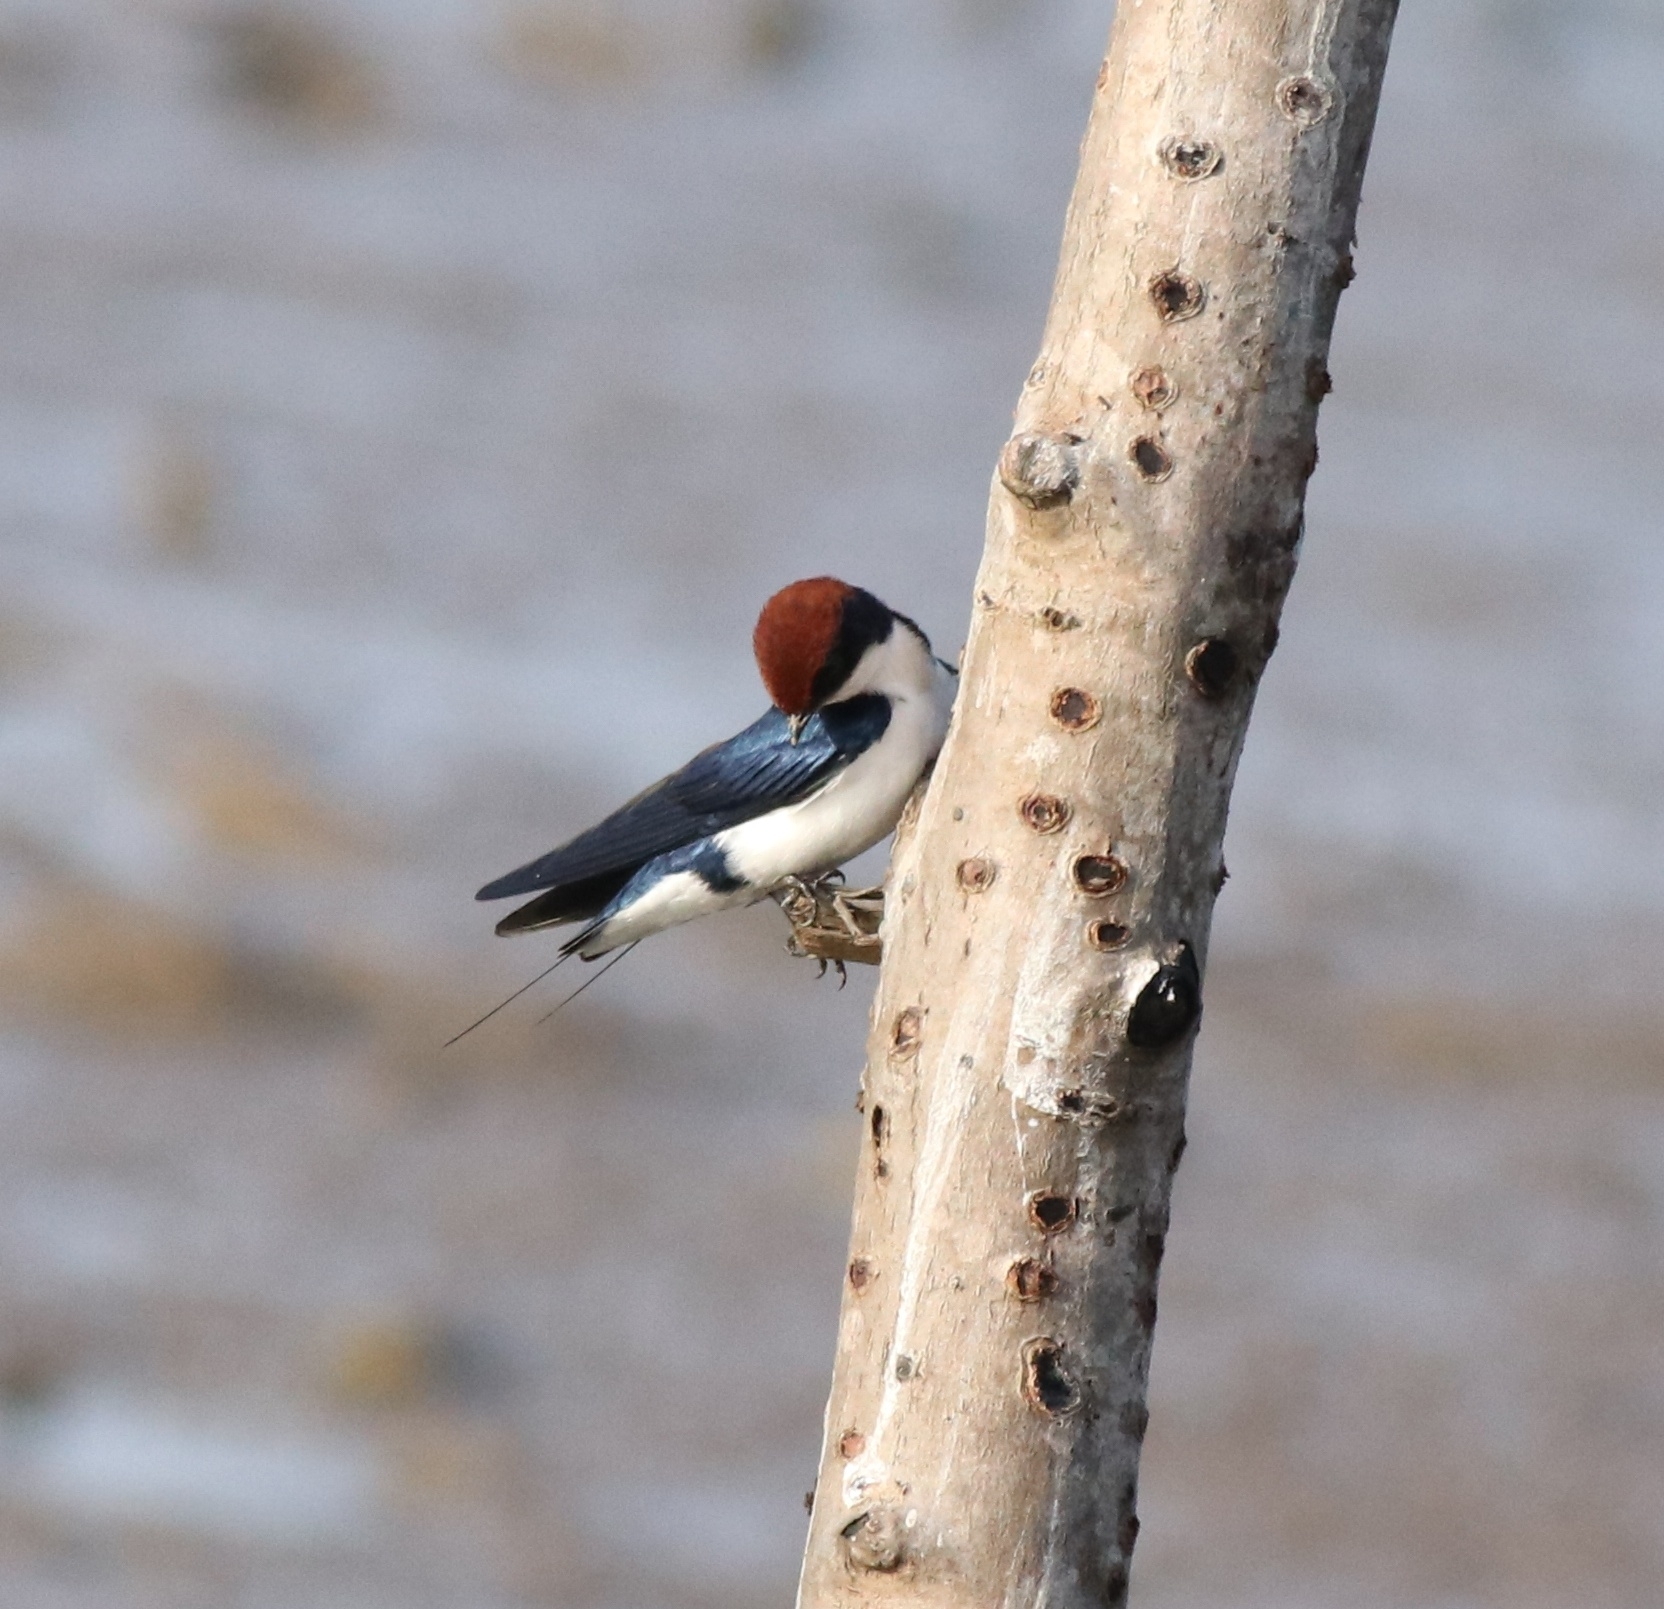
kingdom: Animalia
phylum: Chordata
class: Aves
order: Passeriformes
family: Hirundinidae
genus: Hirundo
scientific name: Hirundo smithii
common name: Wire-tailed swallow
